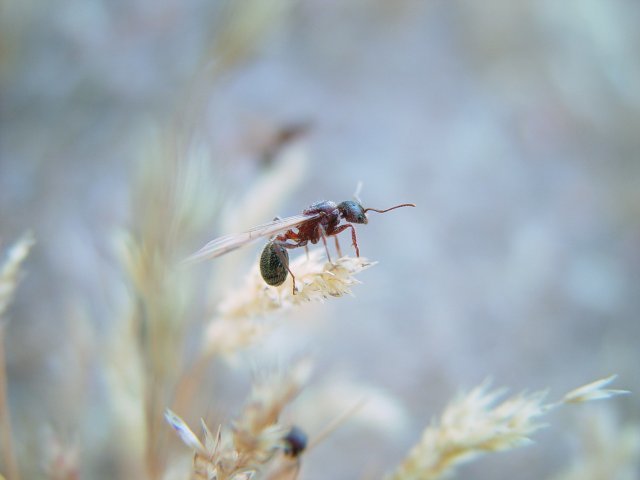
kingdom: Animalia
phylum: Arthropoda
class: Insecta
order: Hymenoptera
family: Formicidae
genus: Veromessor
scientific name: Veromessor andrei
